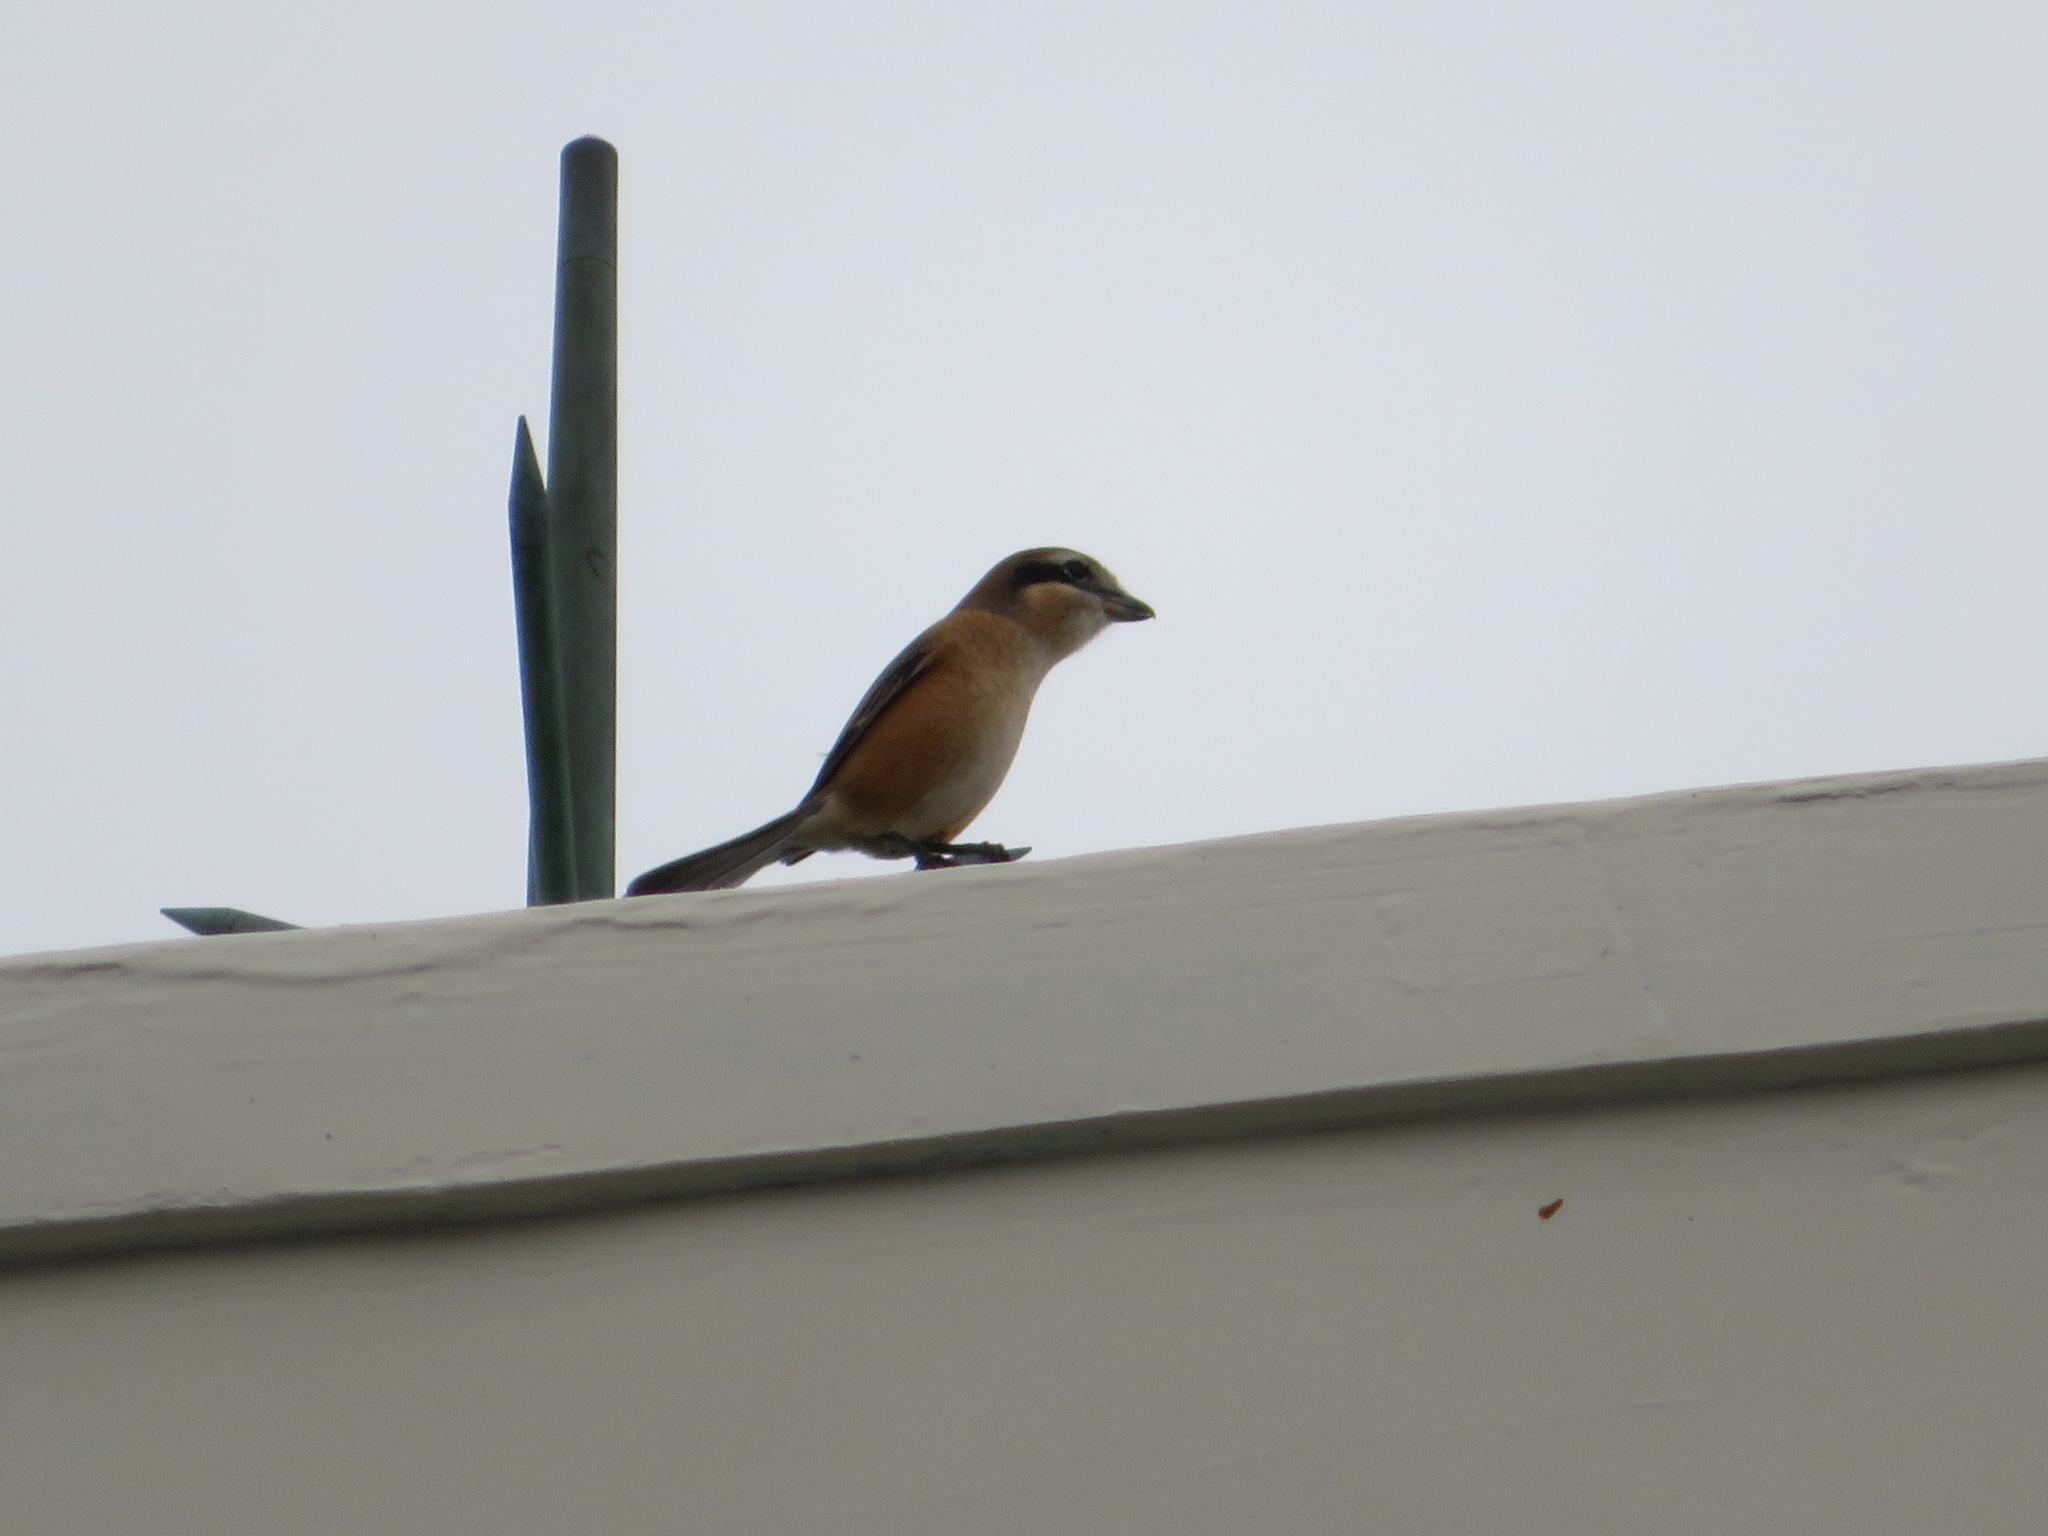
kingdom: Animalia
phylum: Chordata
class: Aves
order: Passeriformes
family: Laniidae
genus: Lanius
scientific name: Lanius bucephalus
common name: Bull-headed shrike
